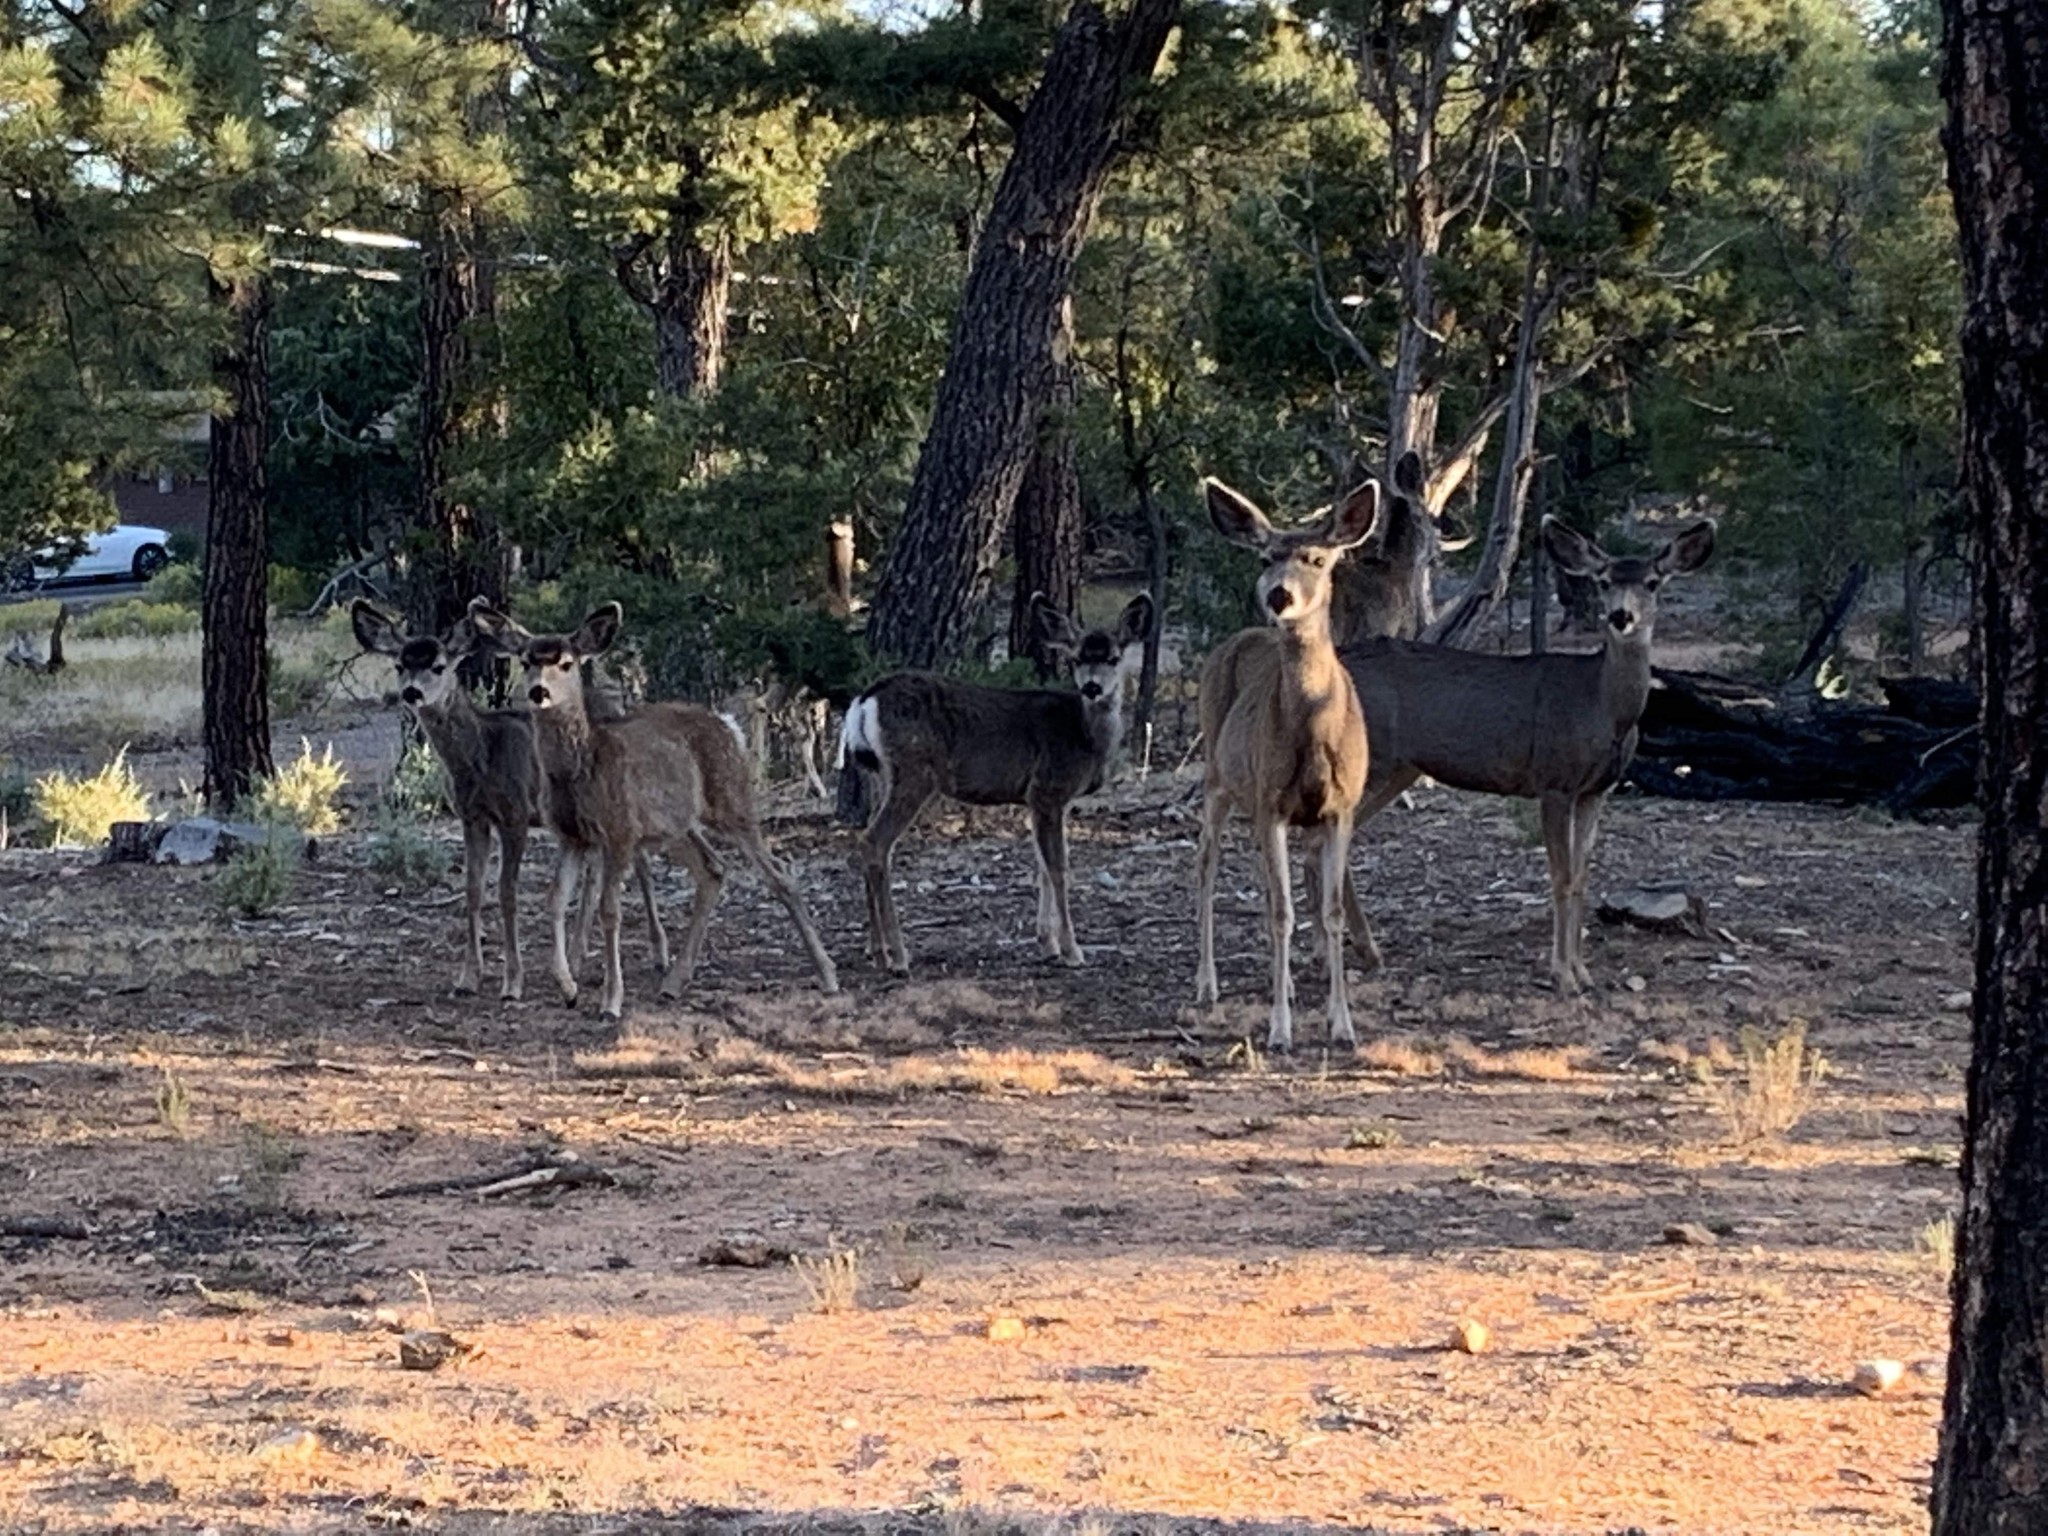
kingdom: Animalia
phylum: Chordata
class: Mammalia
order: Artiodactyla
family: Cervidae
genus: Odocoileus
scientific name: Odocoileus hemionus
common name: Mule deer
